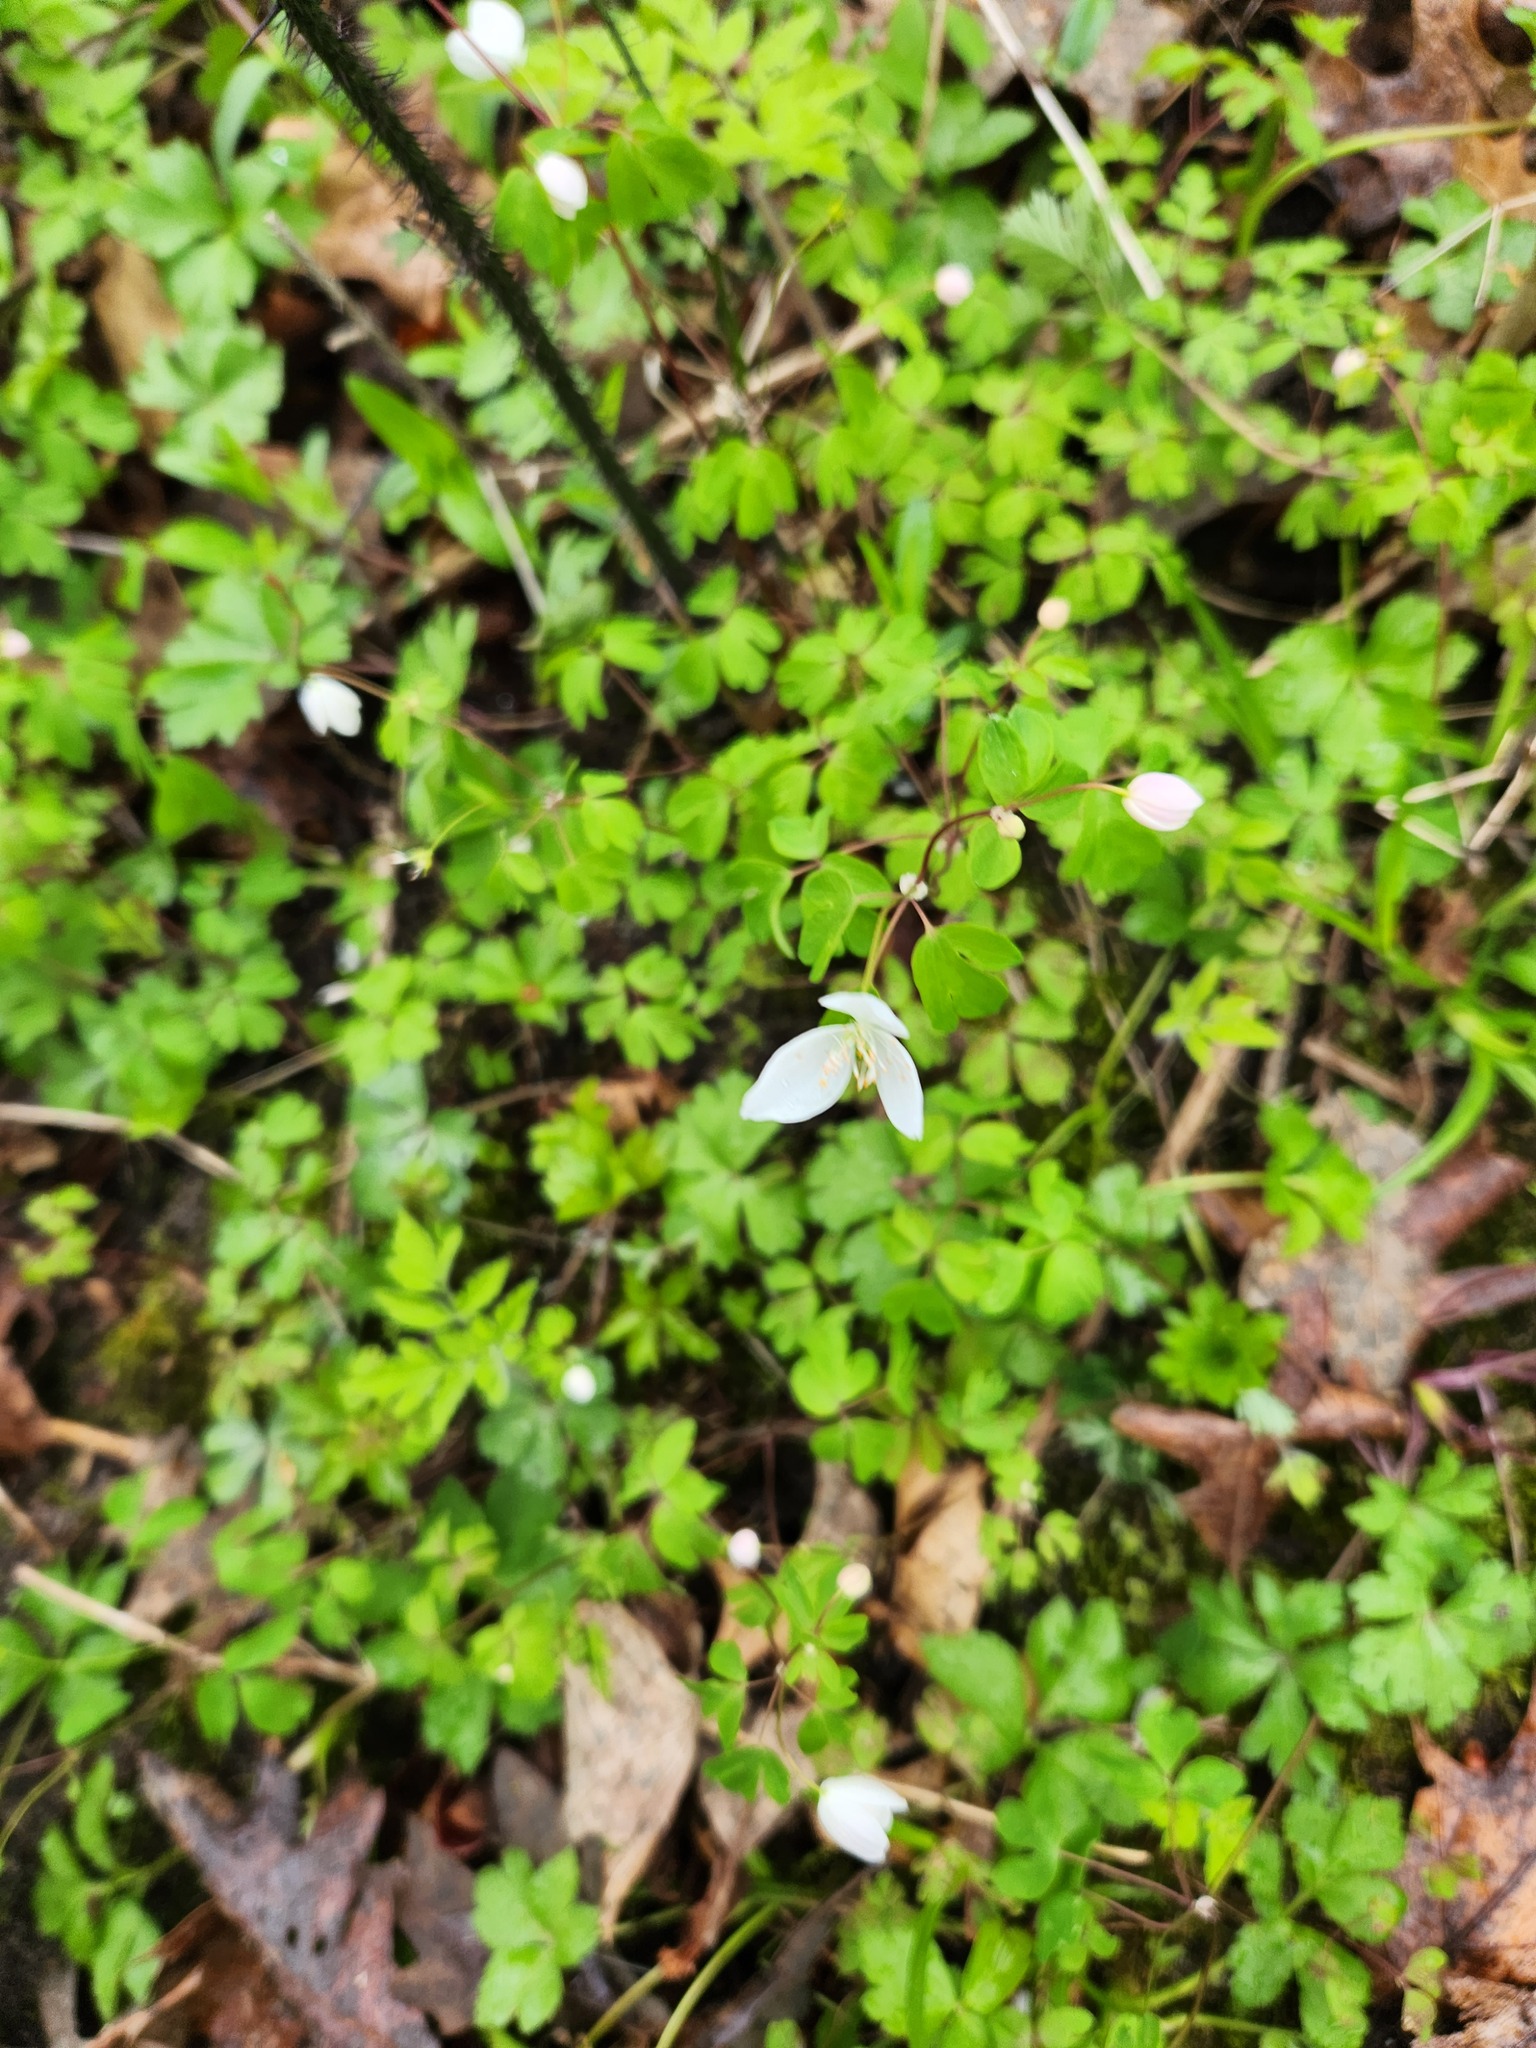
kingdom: Plantae
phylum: Tracheophyta
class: Magnoliopsida
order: Ranunculales
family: Ranunculaceae
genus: Enemion
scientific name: Enemion biternatum
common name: Eastern false rue-anemone
